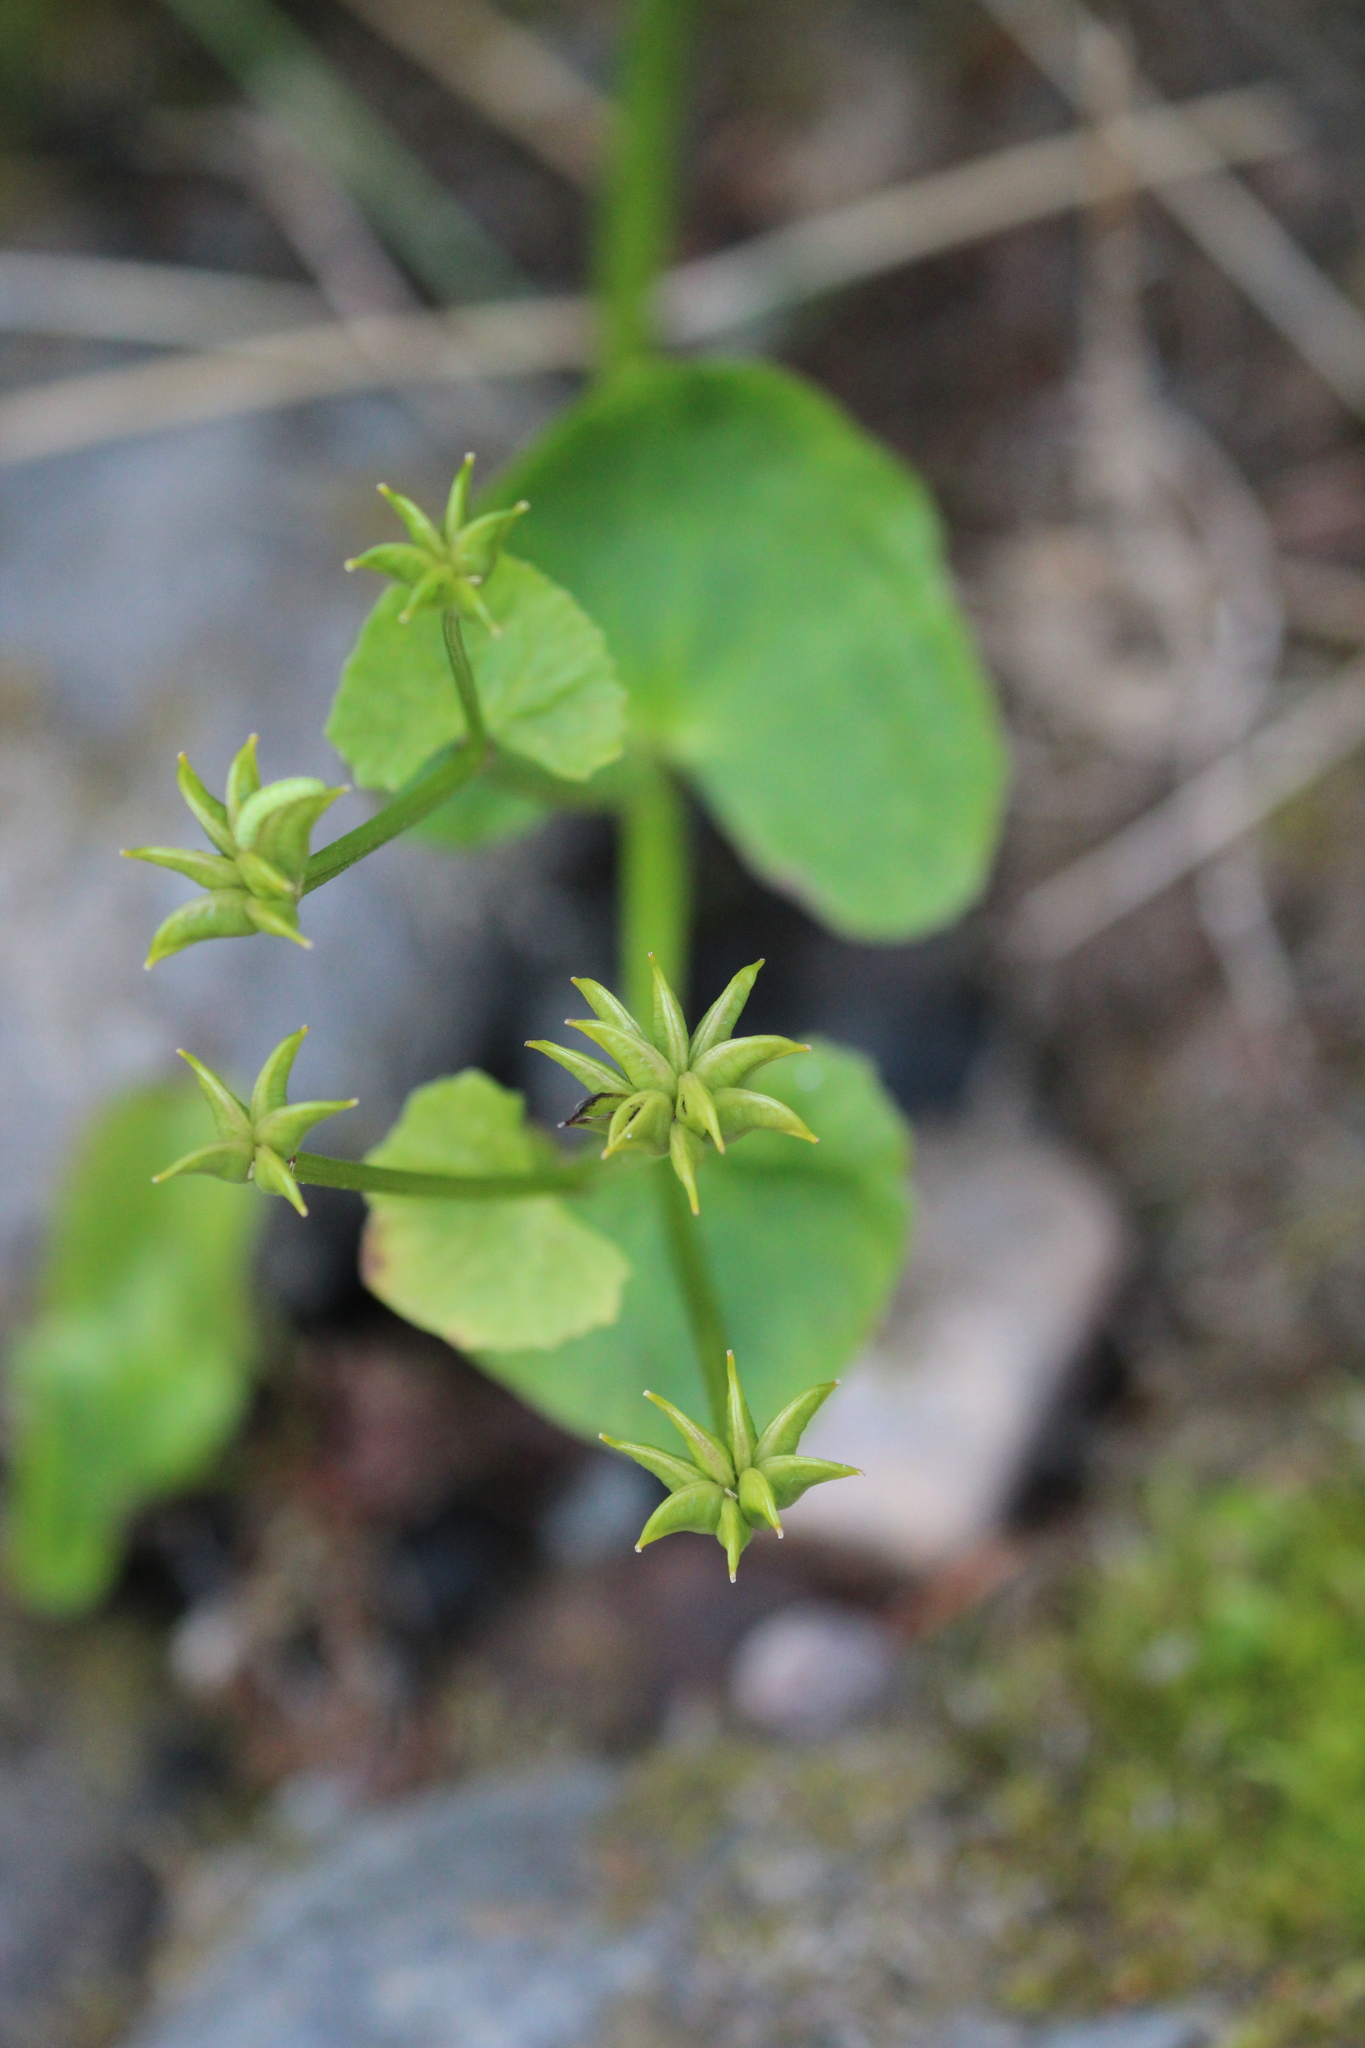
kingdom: Plantae
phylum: Tracheophyta
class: Magnoliopsida
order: Ranunculales
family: Ranunculaceae
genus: Caltha
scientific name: Caltha palustris
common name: Marsh marigold
